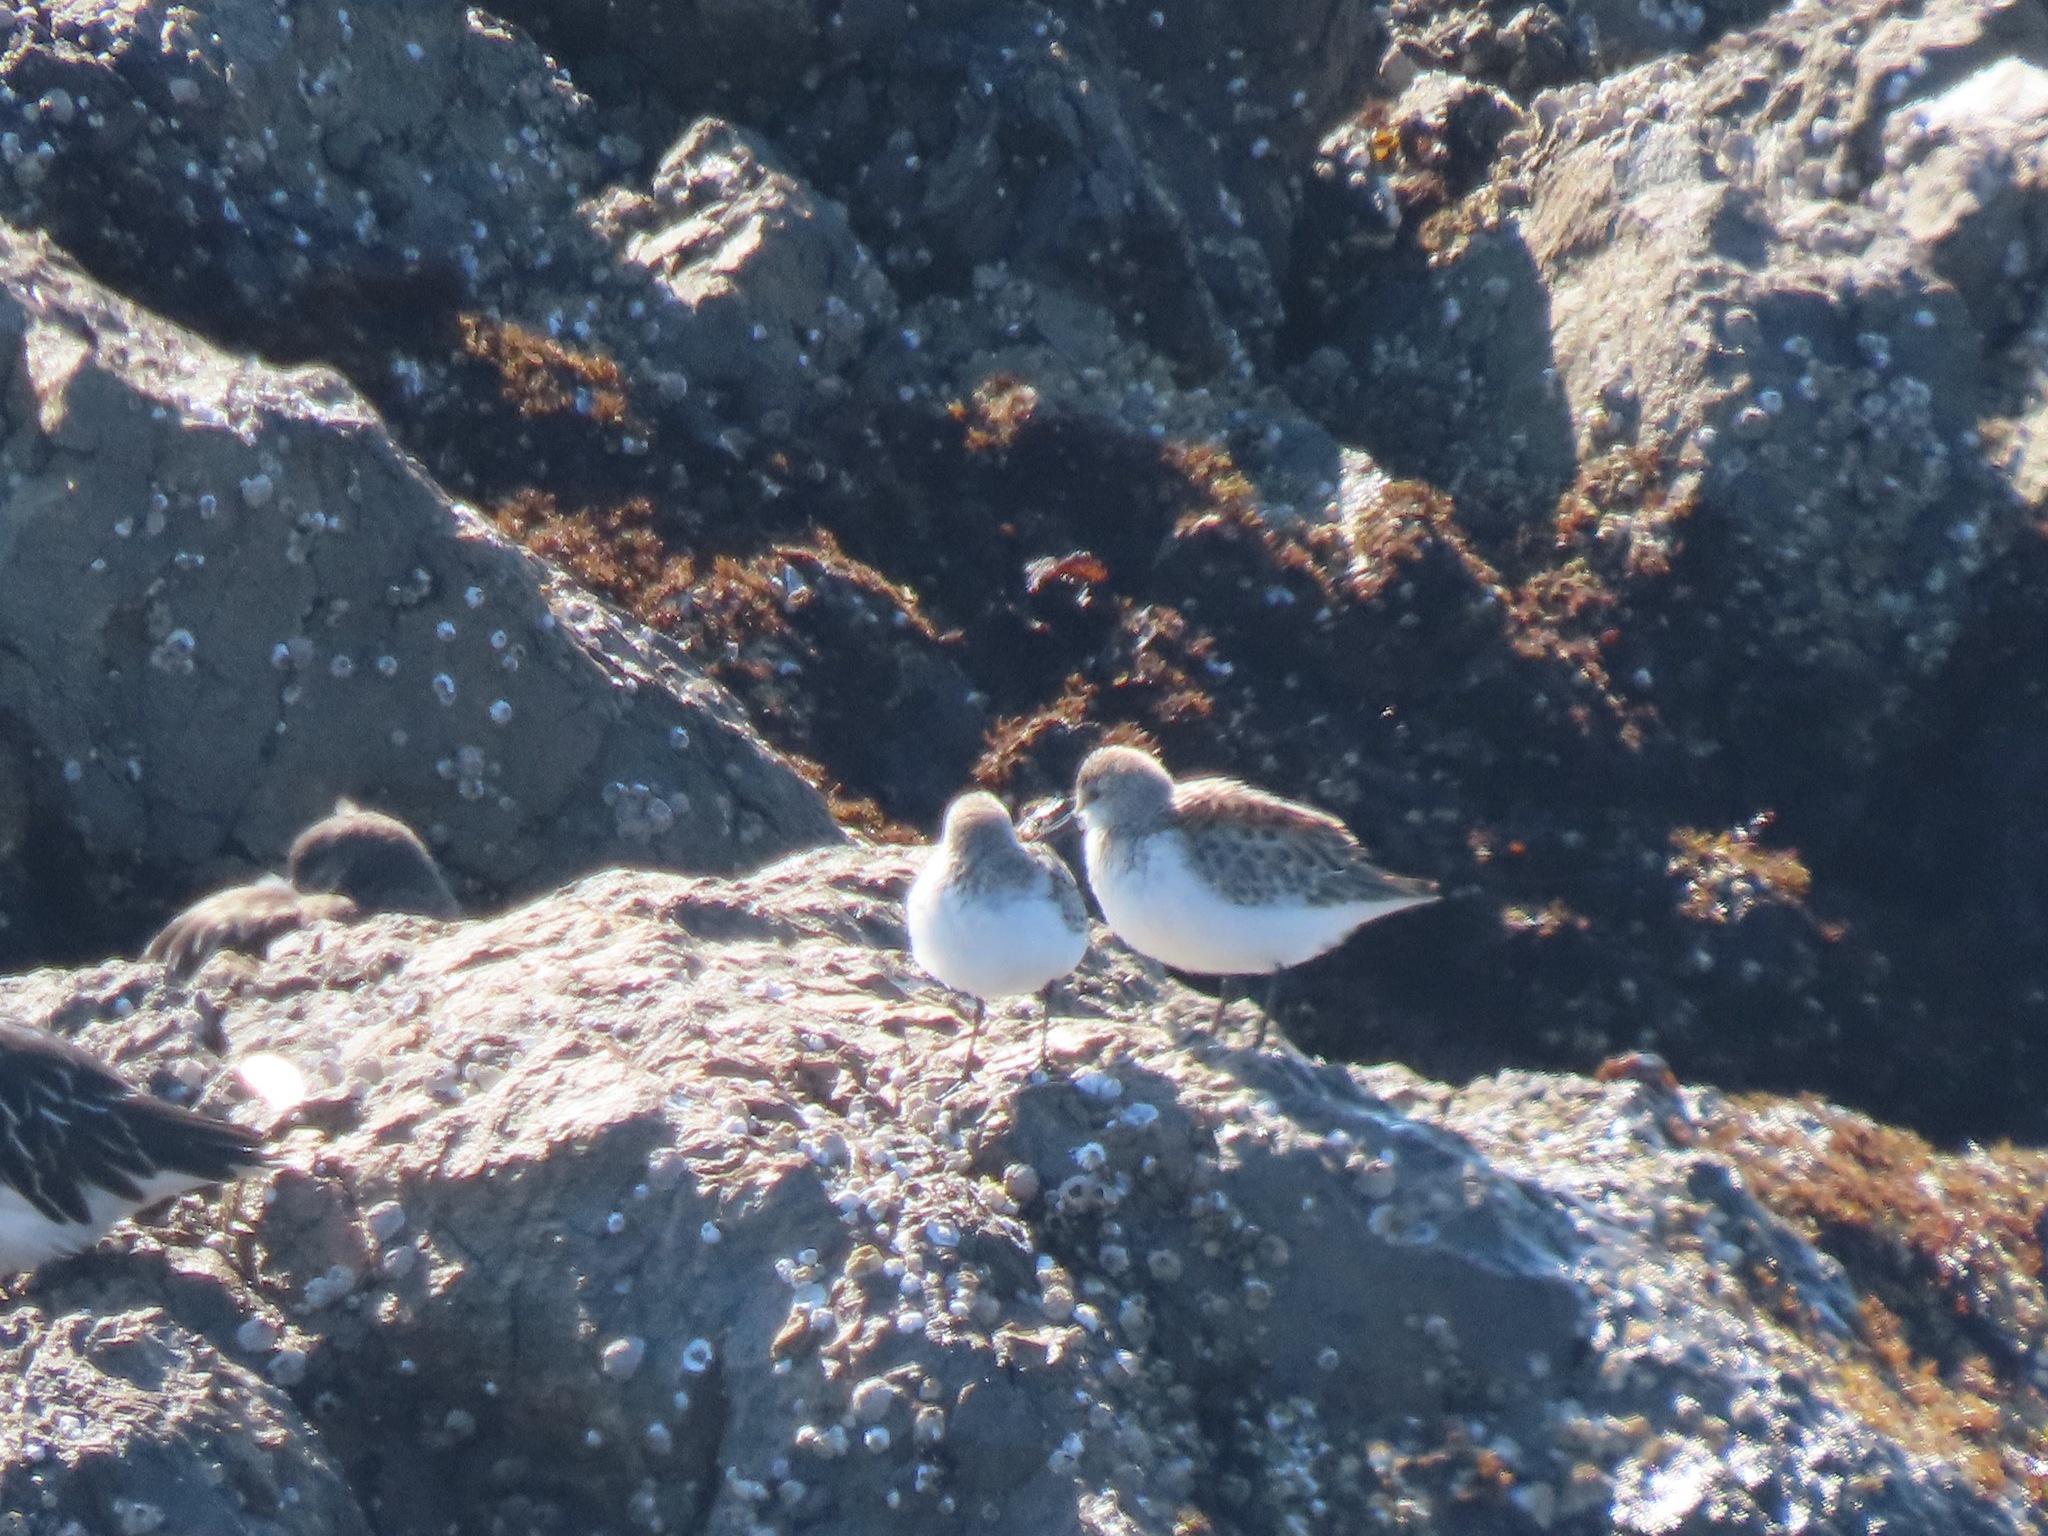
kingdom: Animalia
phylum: Chordata
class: Aves
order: Charadriiformes
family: Scolopacidae
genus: Calidris
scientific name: Calidris mauri
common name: Western sandpiper
